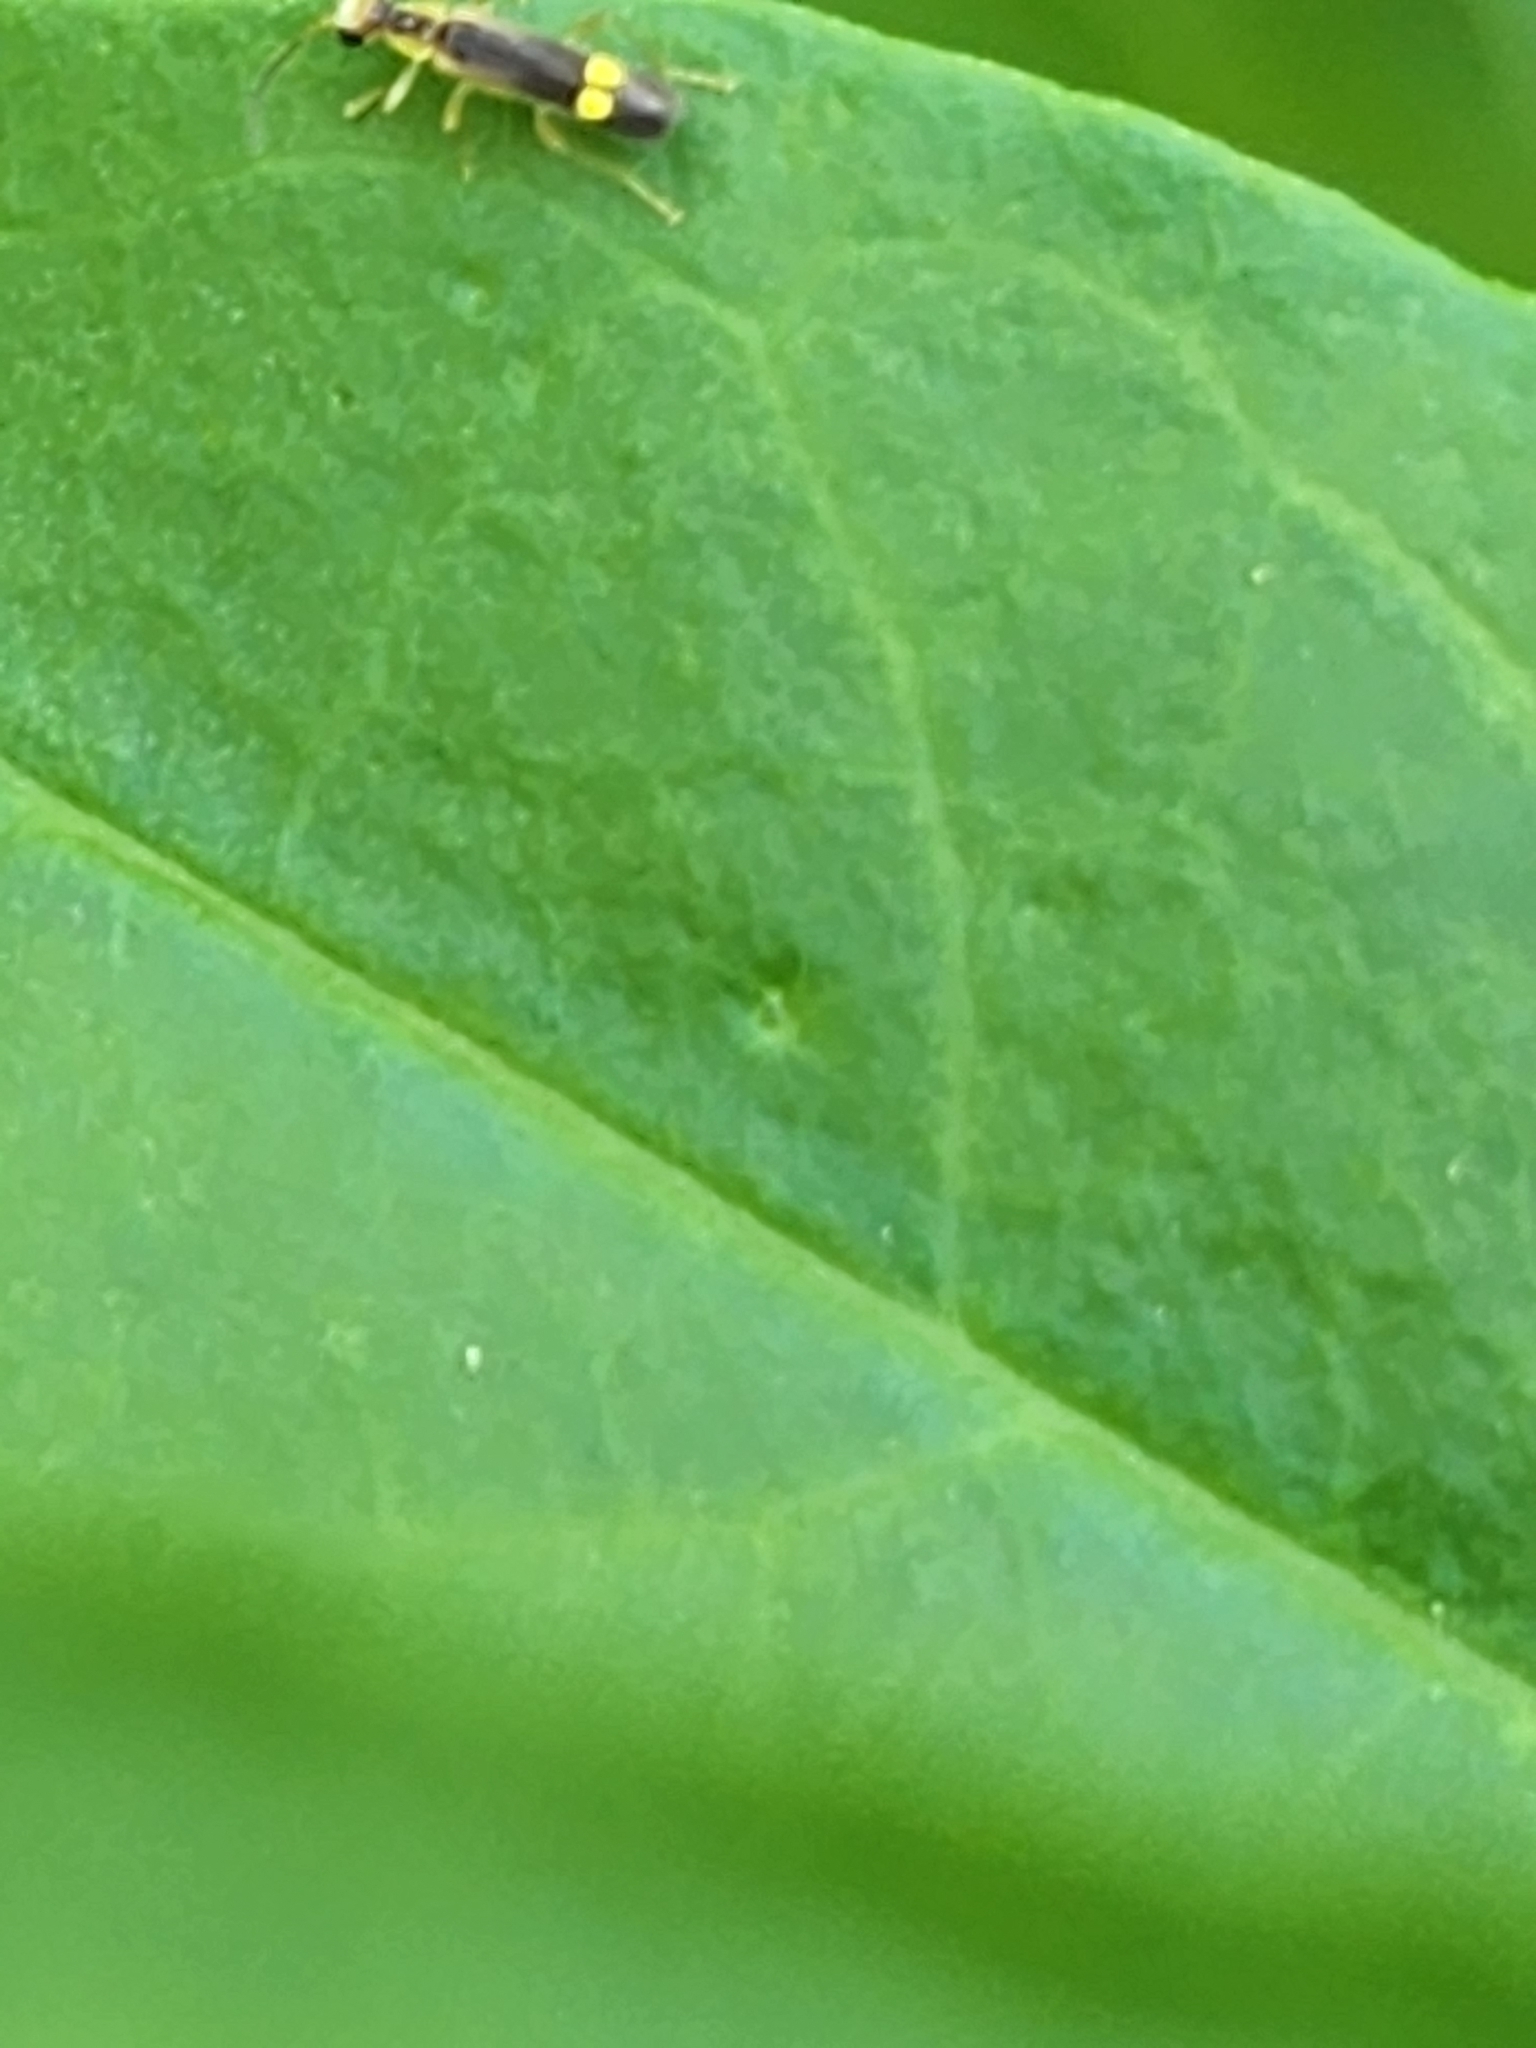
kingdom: Animalia
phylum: Arthropoda
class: Insecta
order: Coleoptera
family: Cantharidae
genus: Malthinus
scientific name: Malthinus occipitalis
